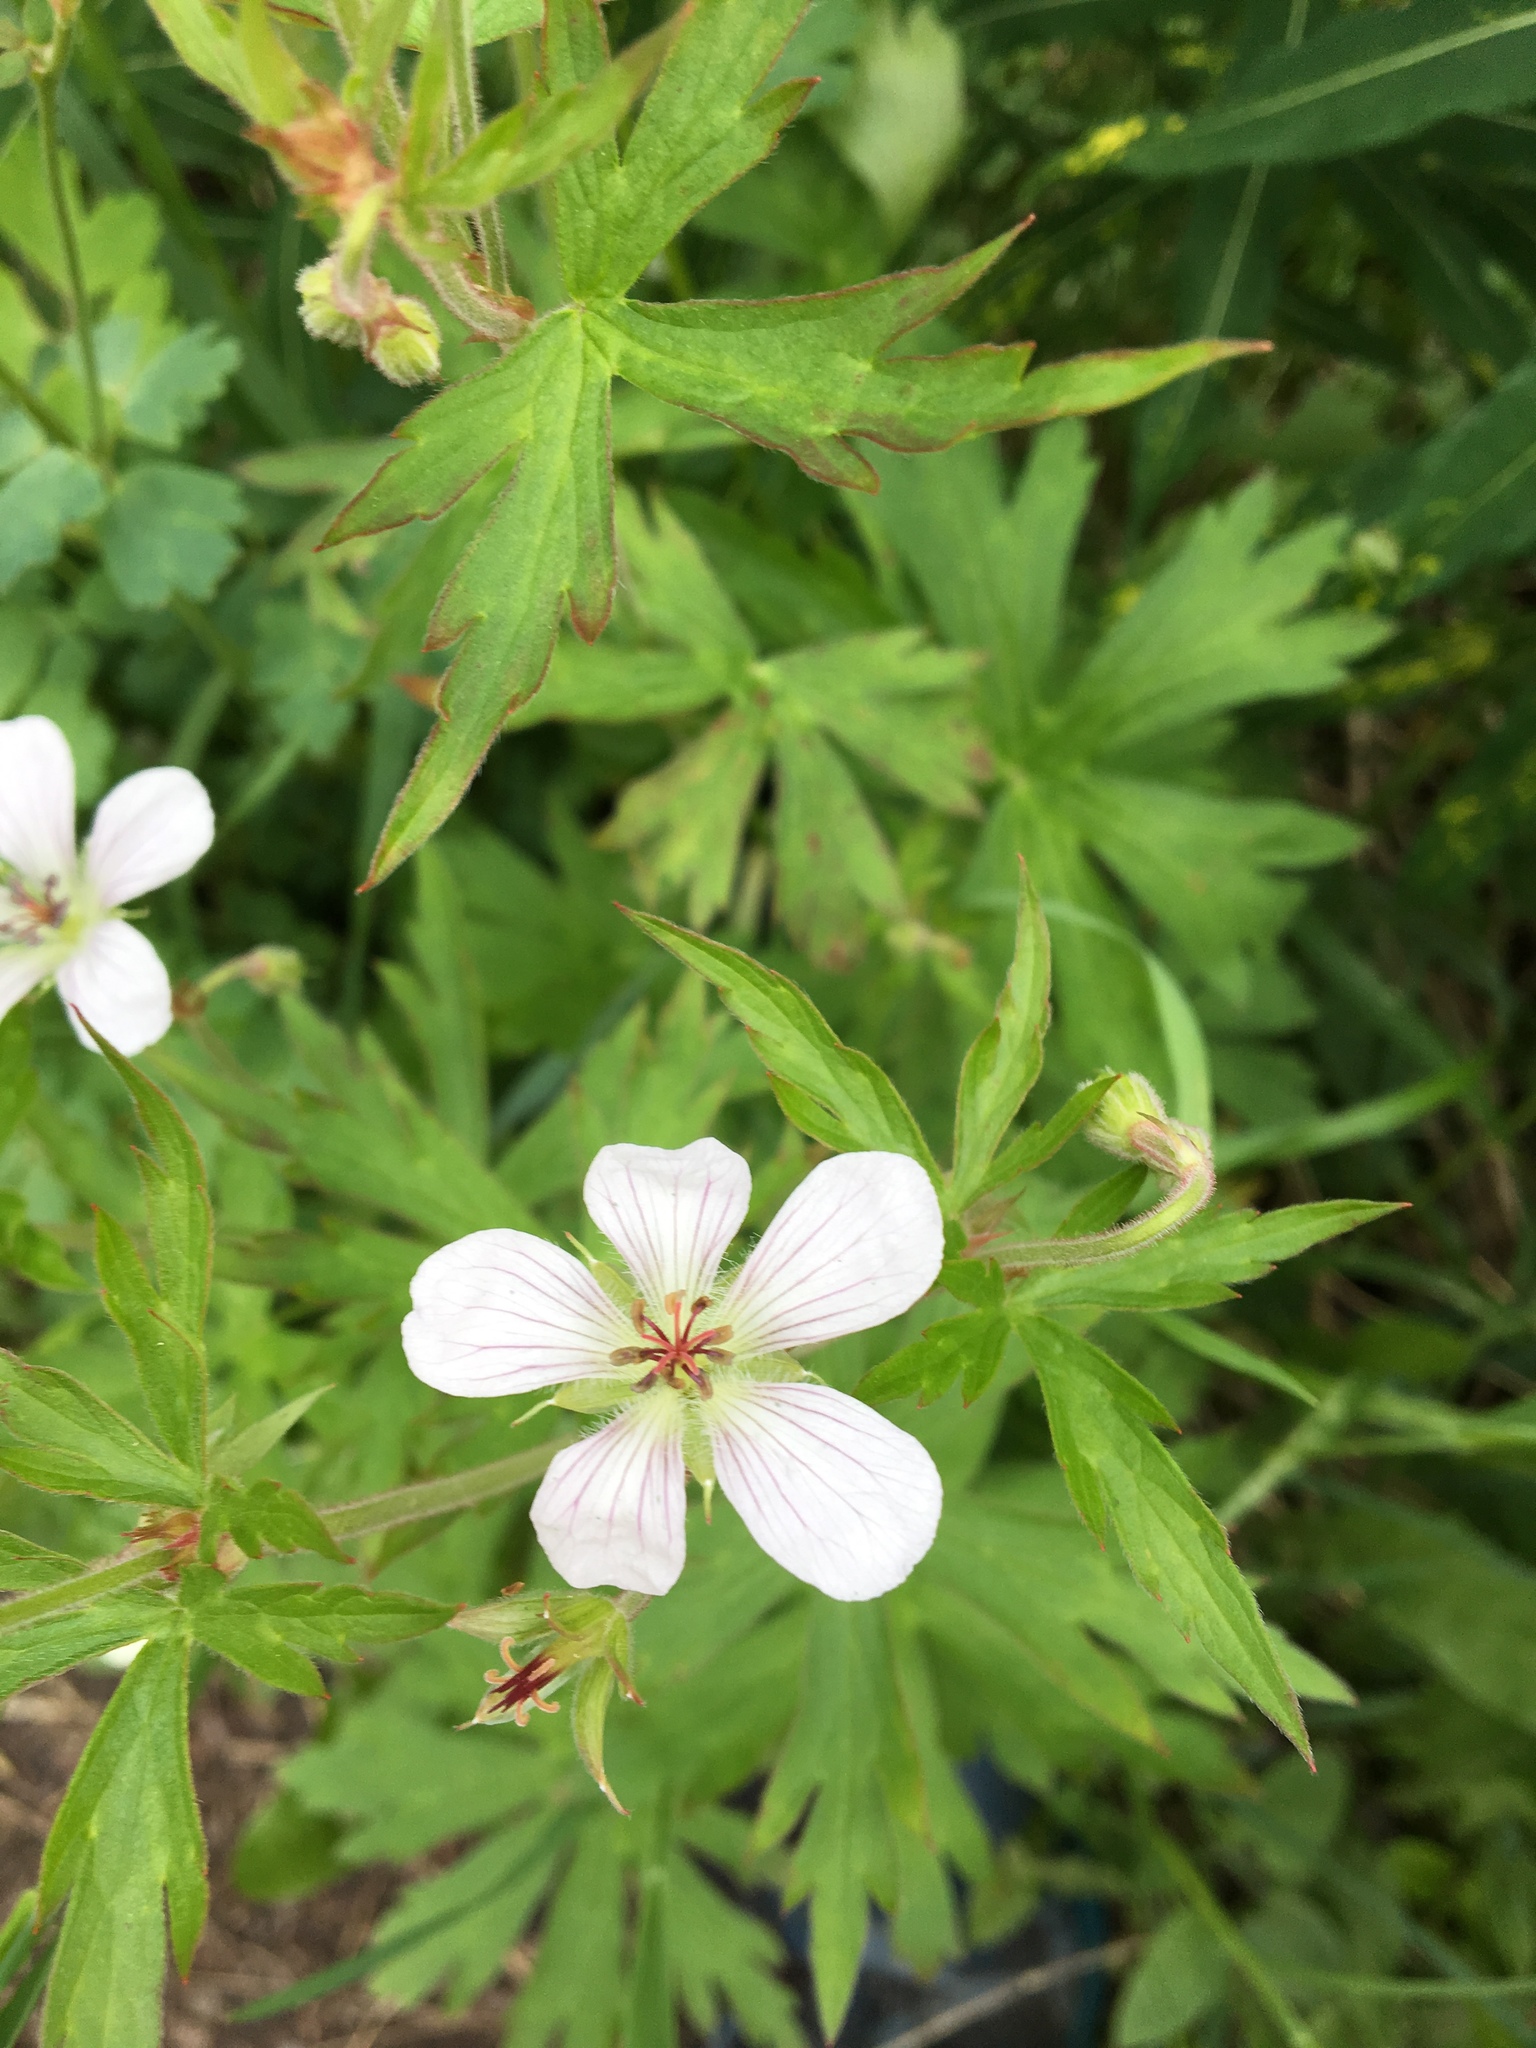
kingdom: Plantae
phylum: Tracheophyta
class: Magnoliopsida
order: Geraniales
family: Geraniaceae
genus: Geranium
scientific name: Geranium richardsonii
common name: Richardson's crane's-bill
